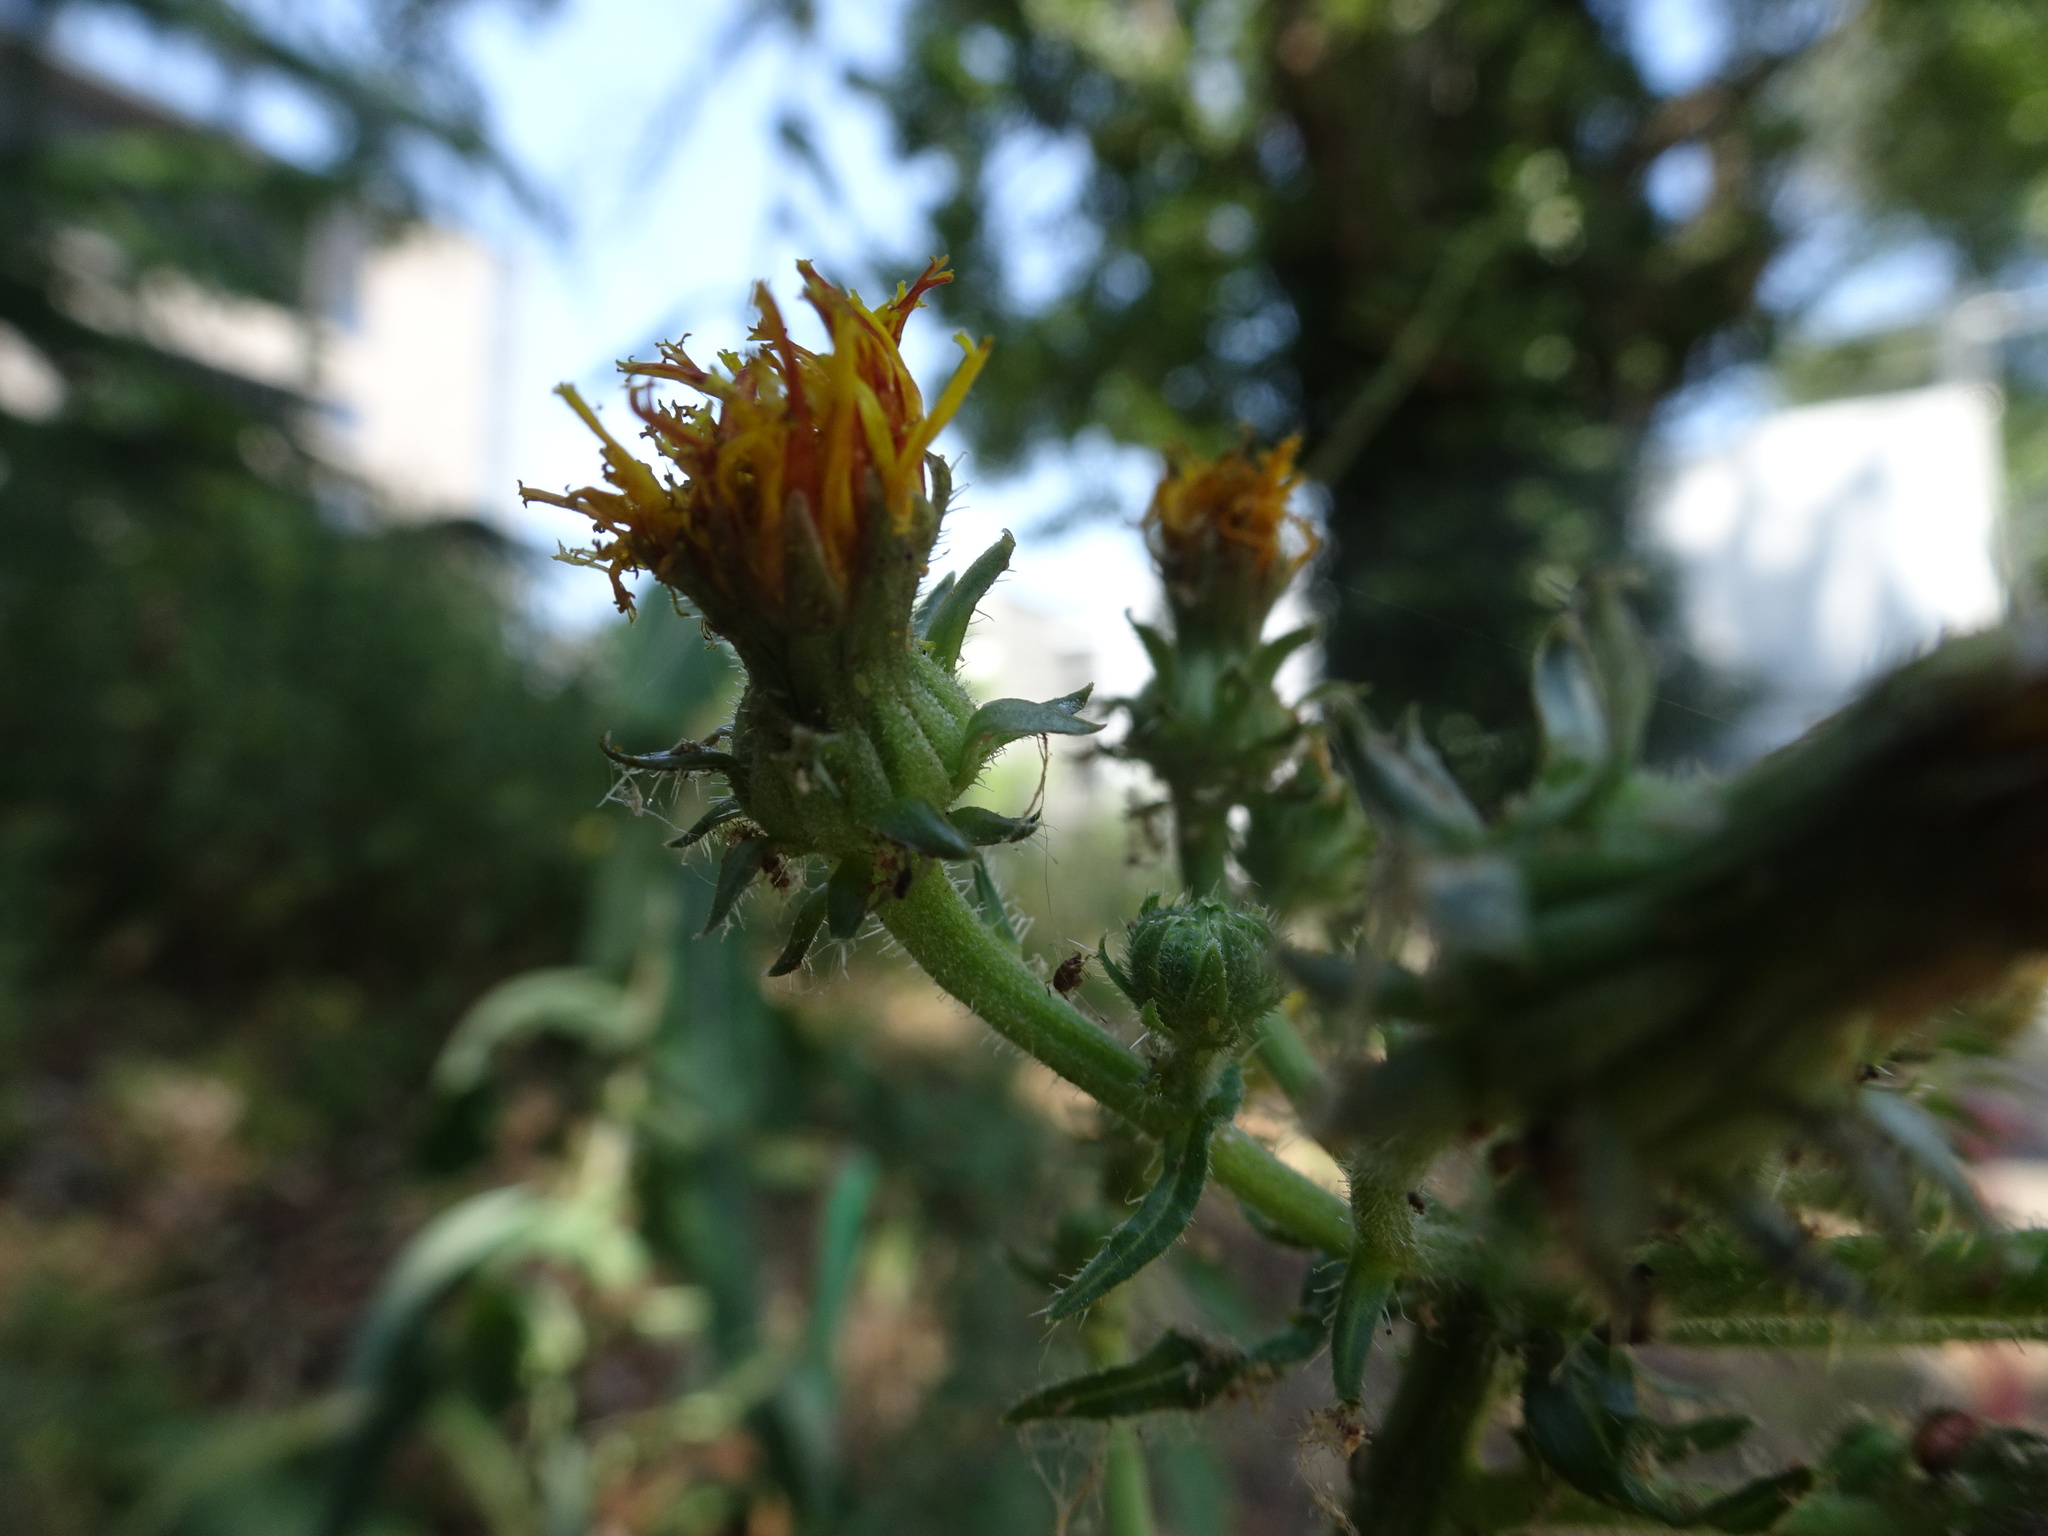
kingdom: Plantae
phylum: Tracheophyta
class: Magnoliopsida
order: Asterales
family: Asteraceae
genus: Picris
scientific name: Picris hieracioides
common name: Hawkweed oxtongue
